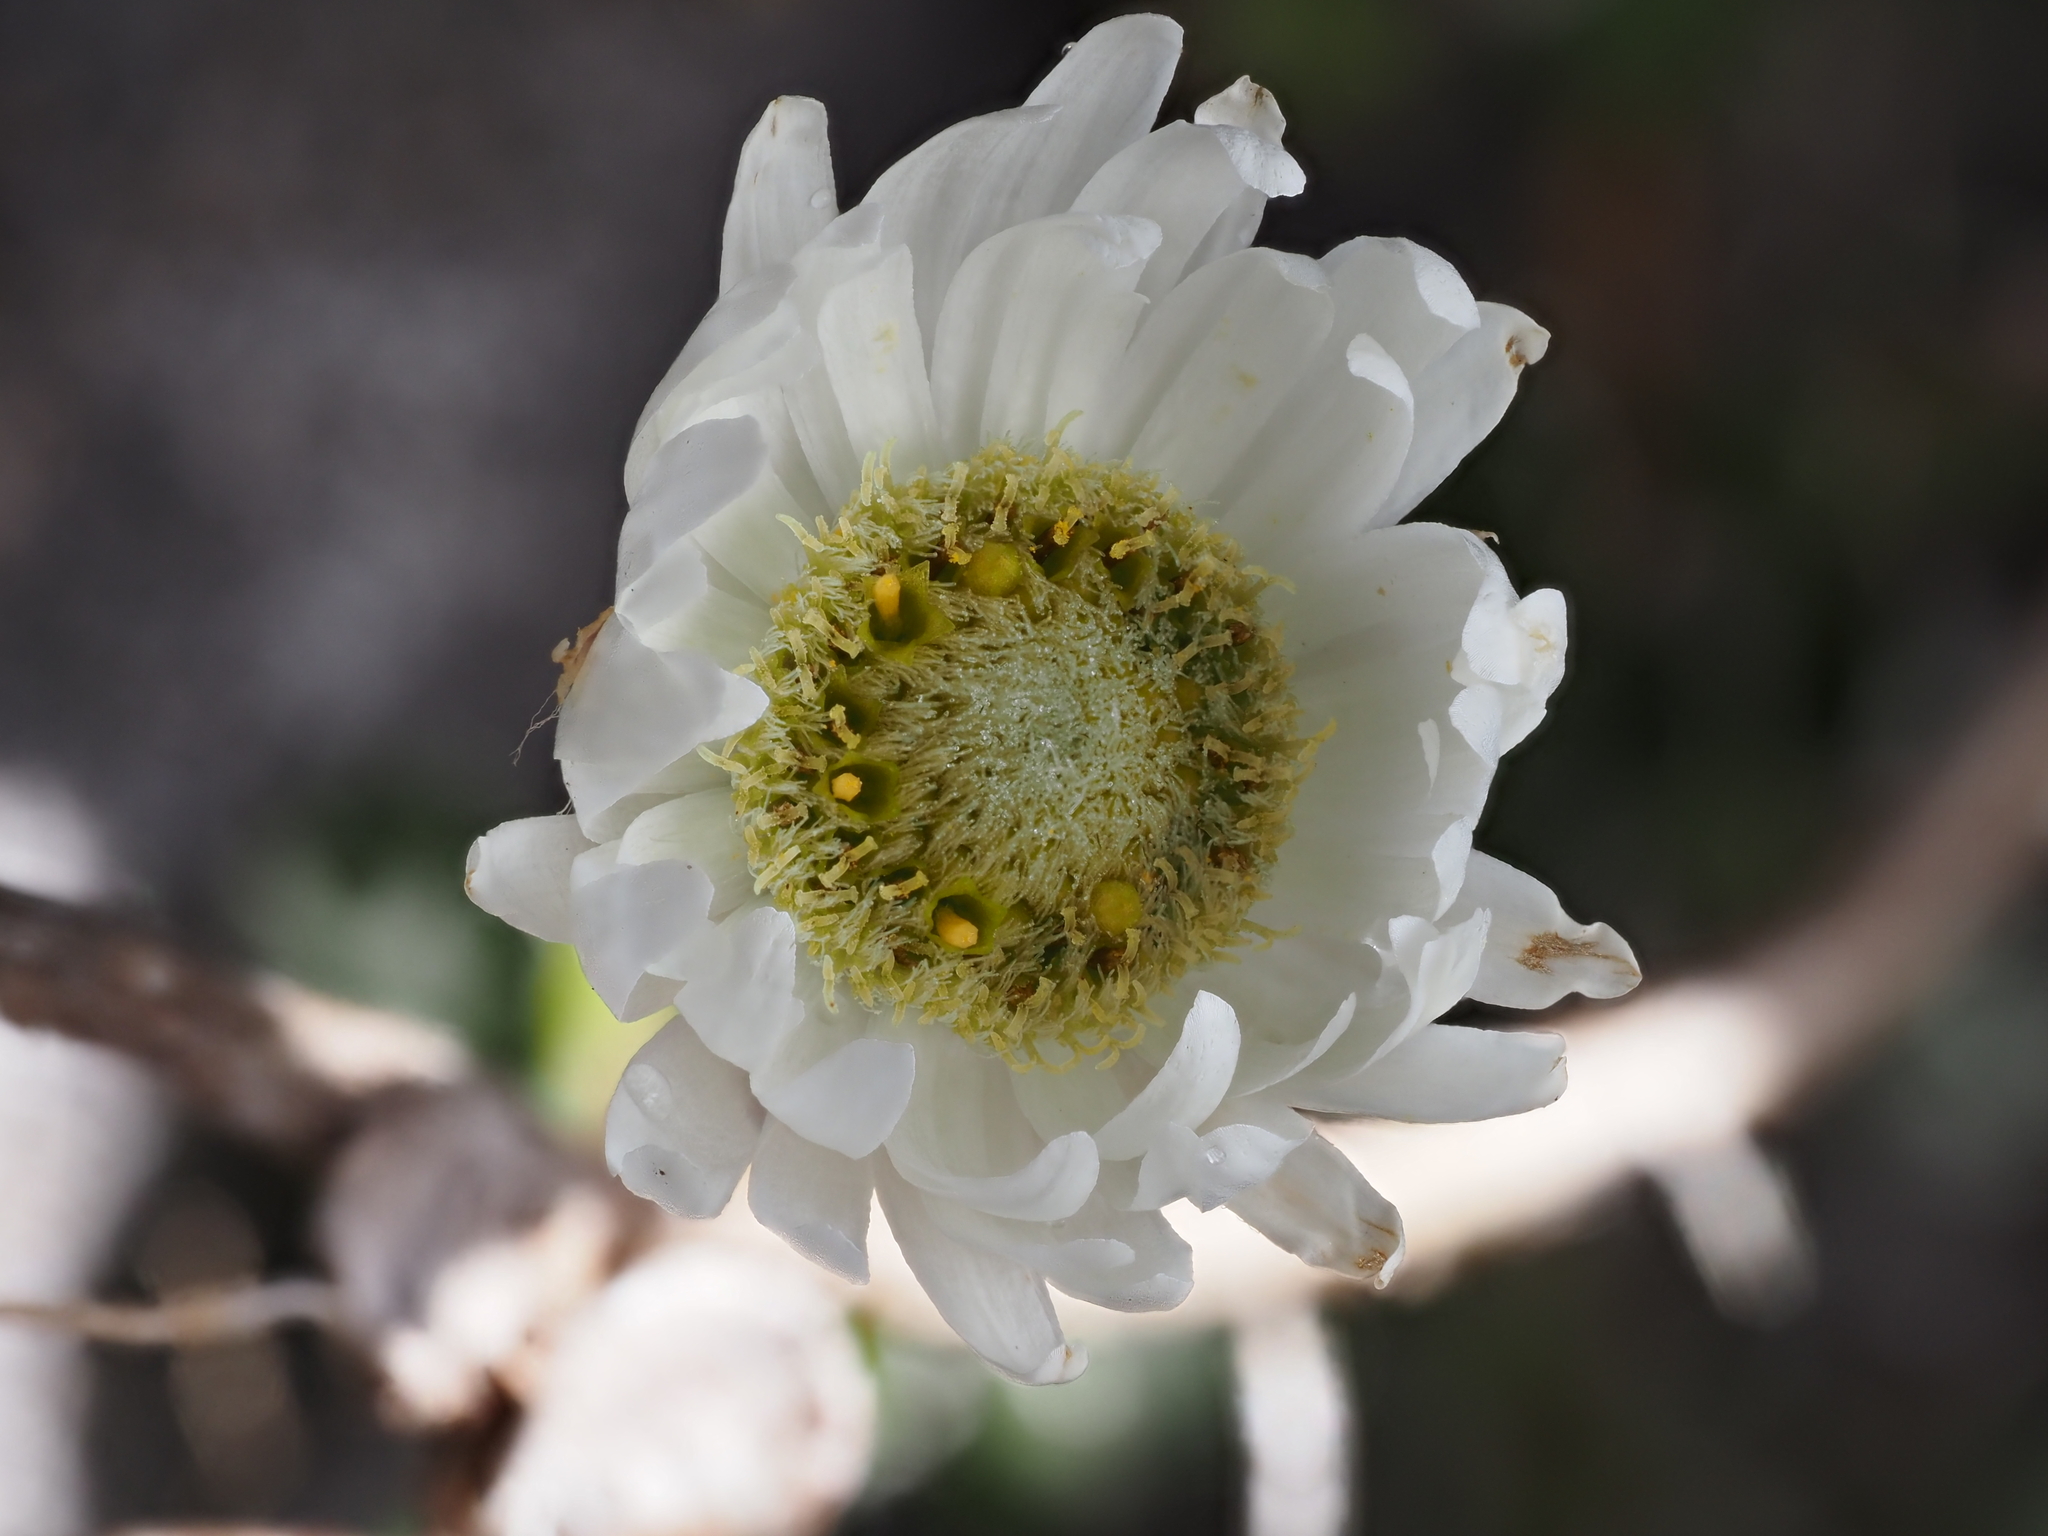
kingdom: Plantae
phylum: Tracheophyta
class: Magnoliopsida
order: Asterales
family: Asteraceae
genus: Anaphalioides
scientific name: Anaphalioides alpina
